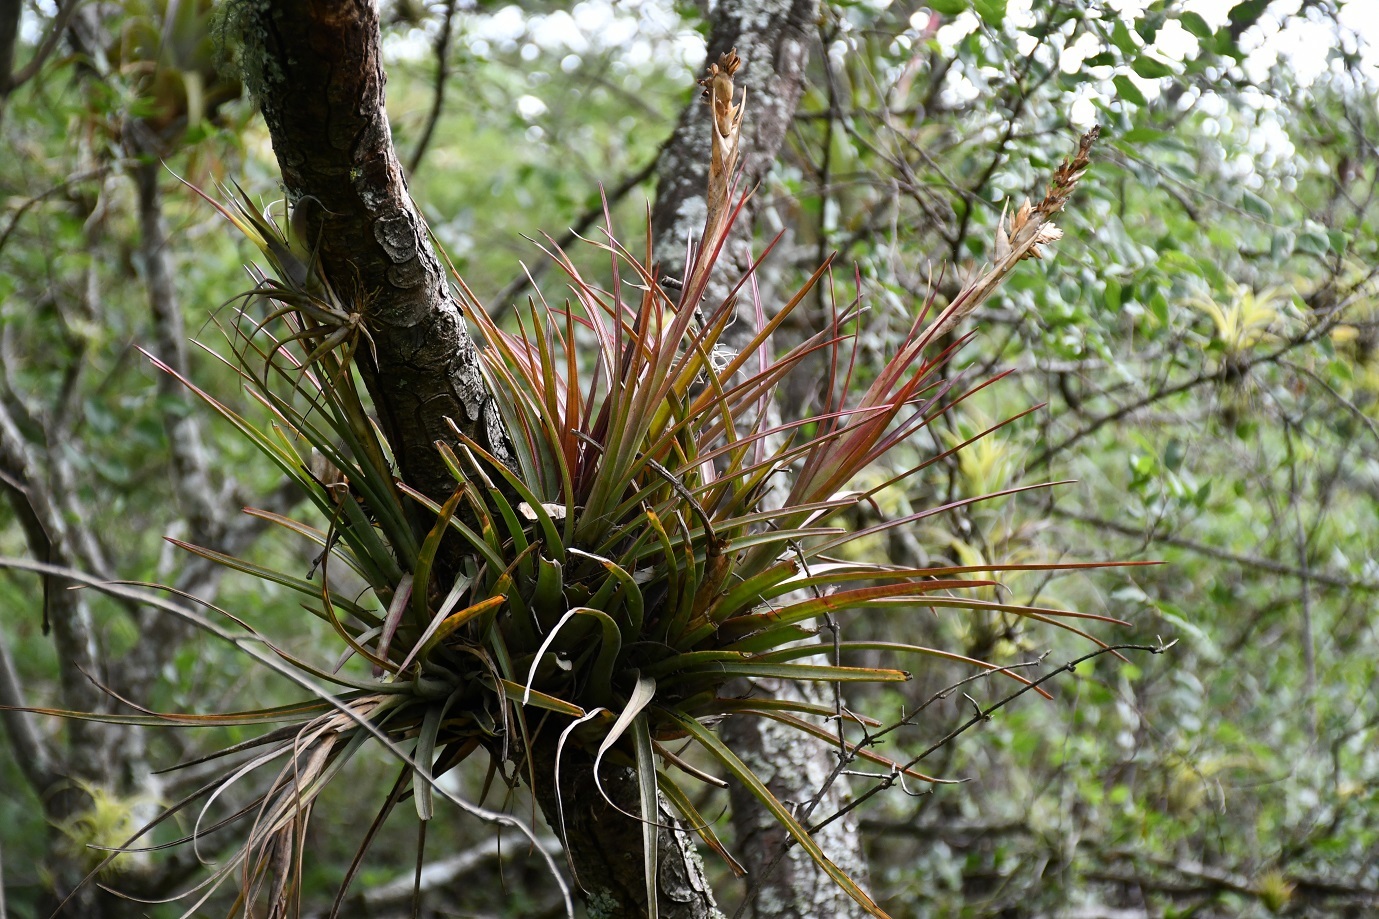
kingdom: Plantae
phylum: Tracheophyta
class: Liliopsida
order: Poales
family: Bromeliaceae
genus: Tillandsia
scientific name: Tillandsia calothyrsus
